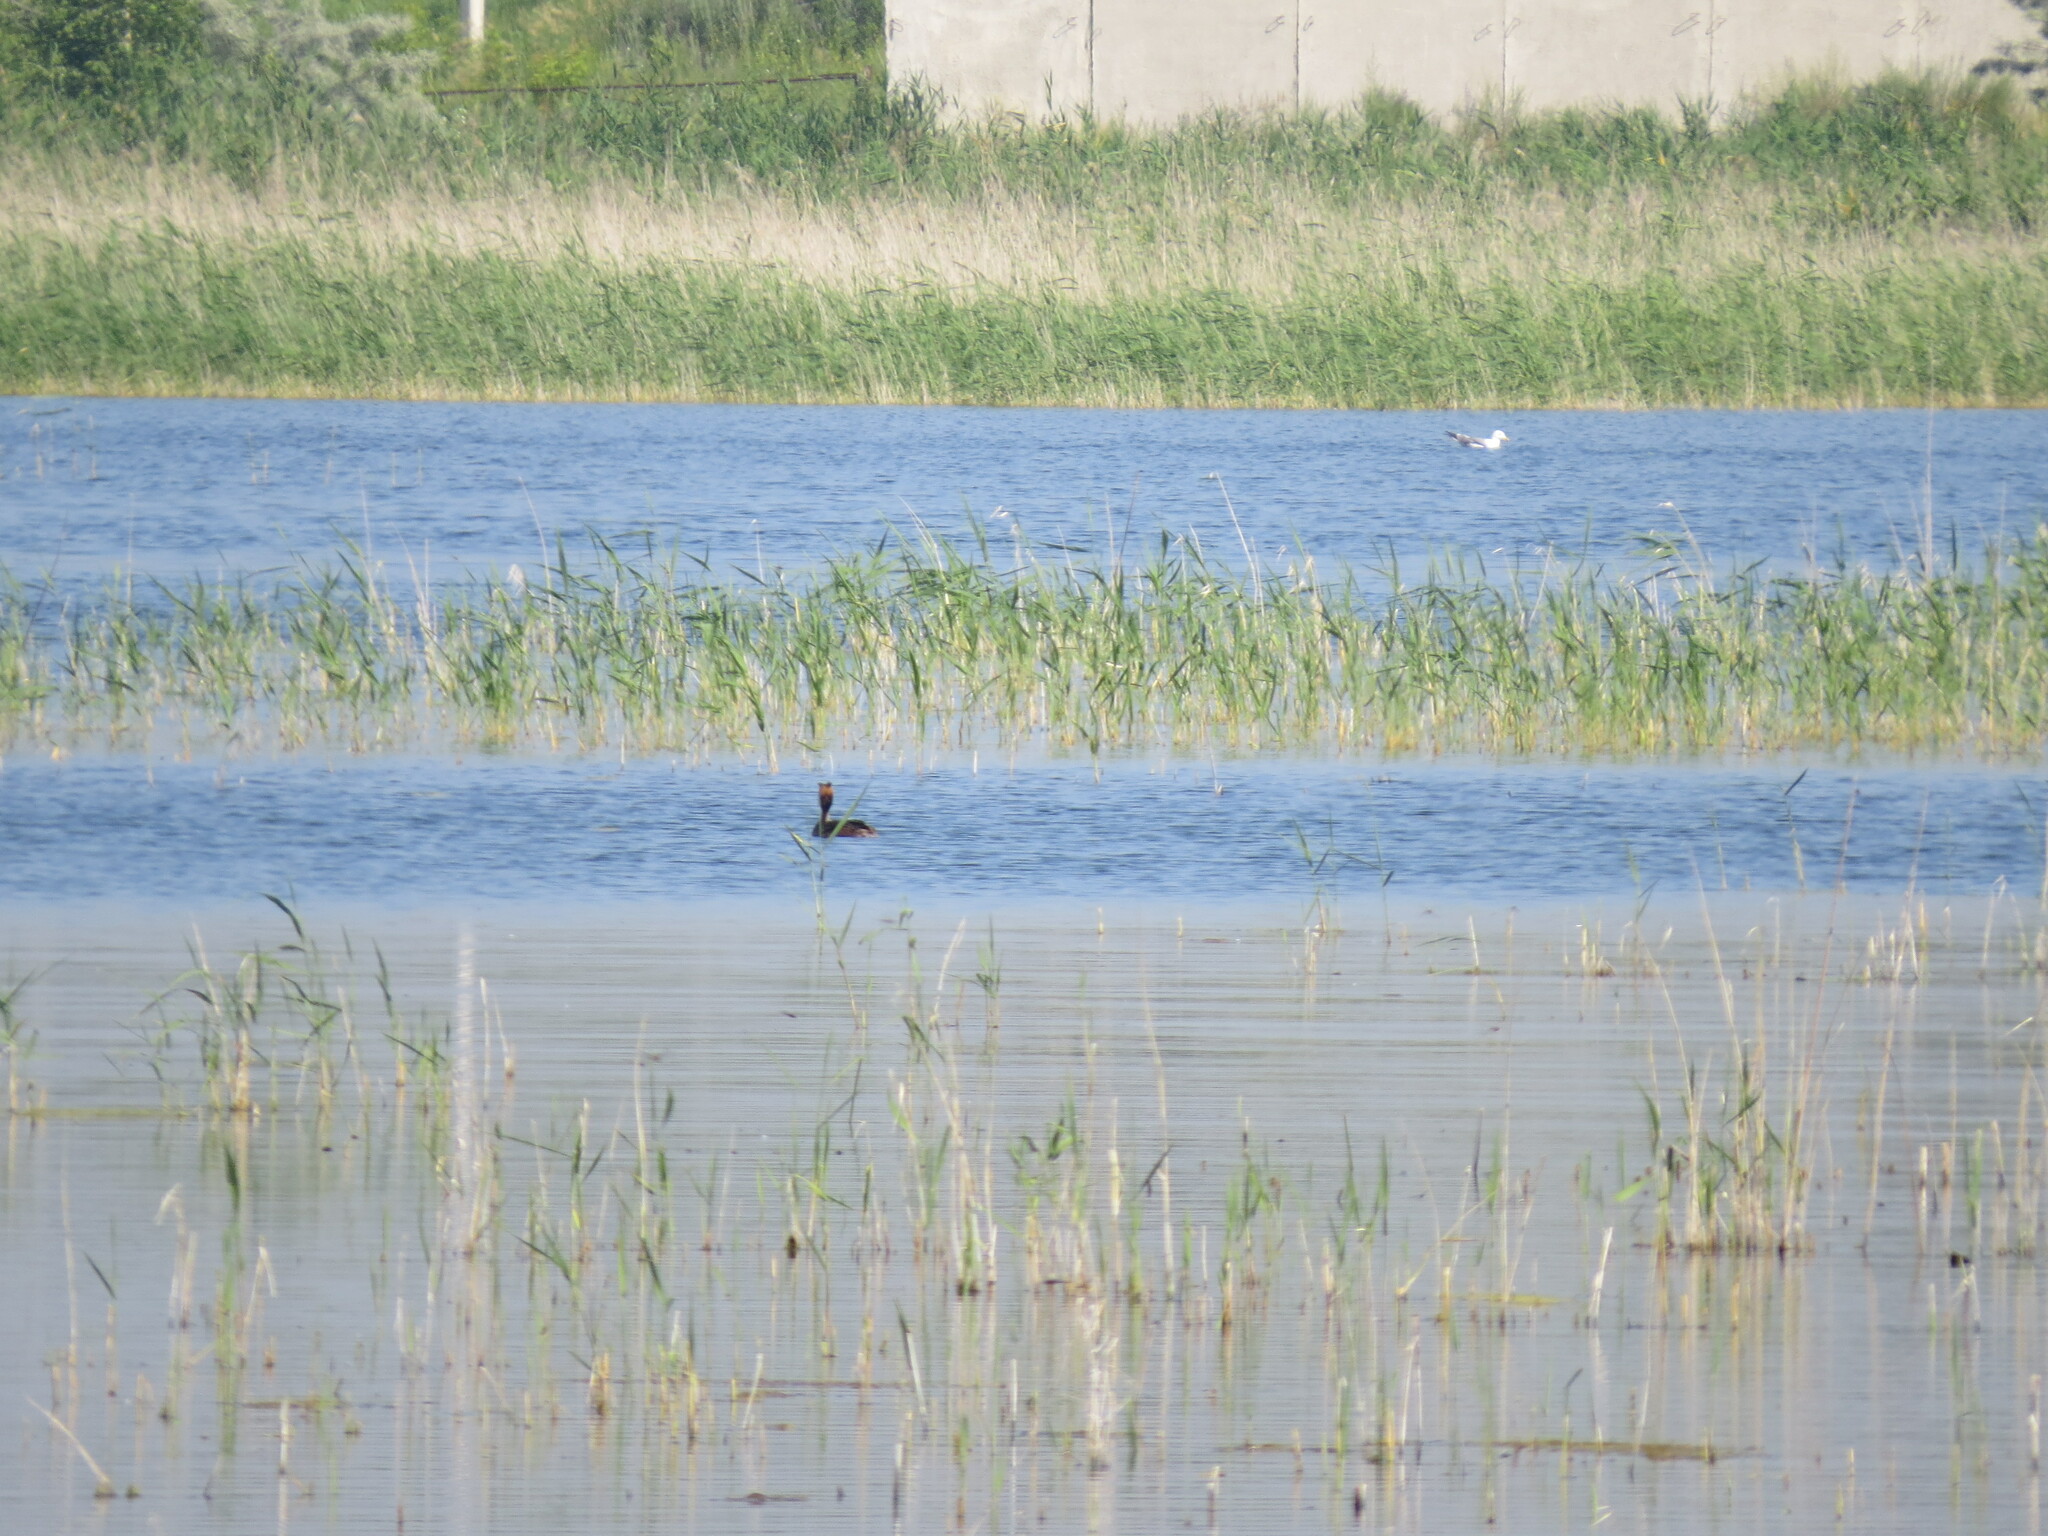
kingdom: Animalia
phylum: Chordata
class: Aves
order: Podicipediformes
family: Podicipedidae
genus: Podiceps
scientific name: Podiceps cristatus
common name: Great crested grebe
